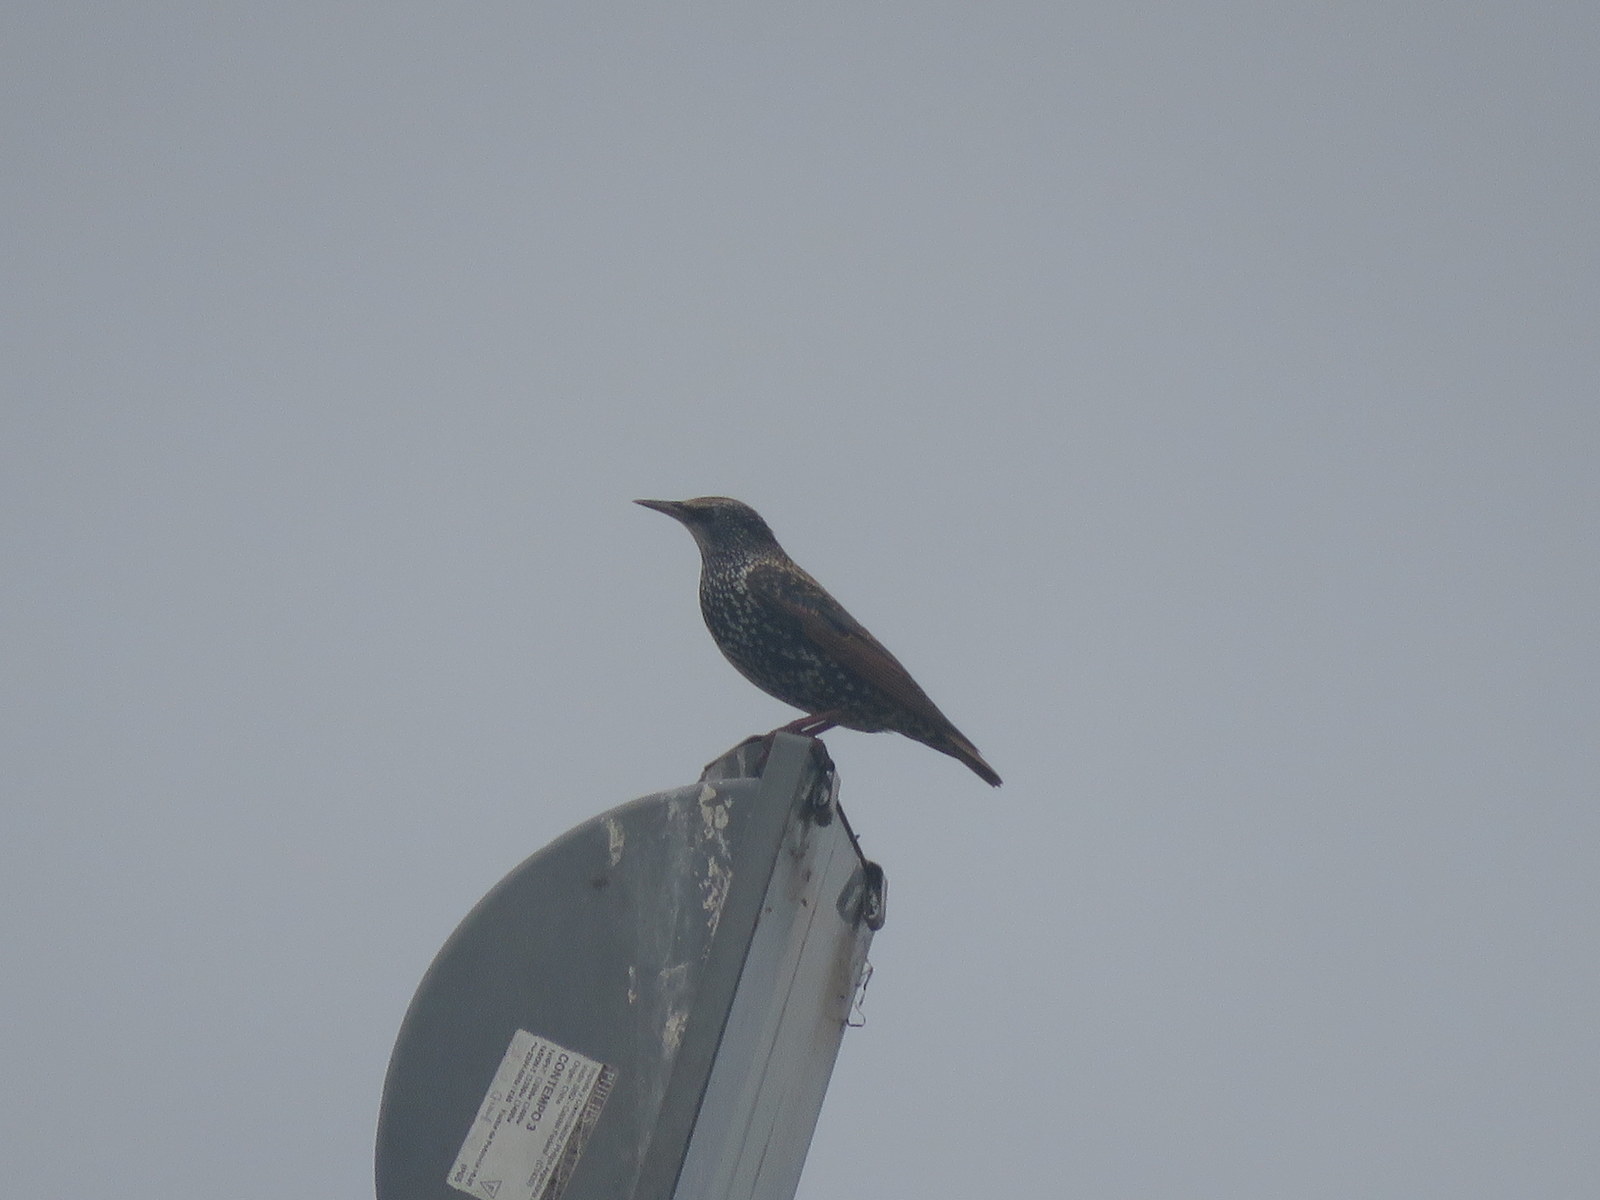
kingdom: Animalia
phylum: Chordata
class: Aves
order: Passeriformes
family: Sturnidae
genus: Sturnus
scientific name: Sturnus vulgaris
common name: Common starling
